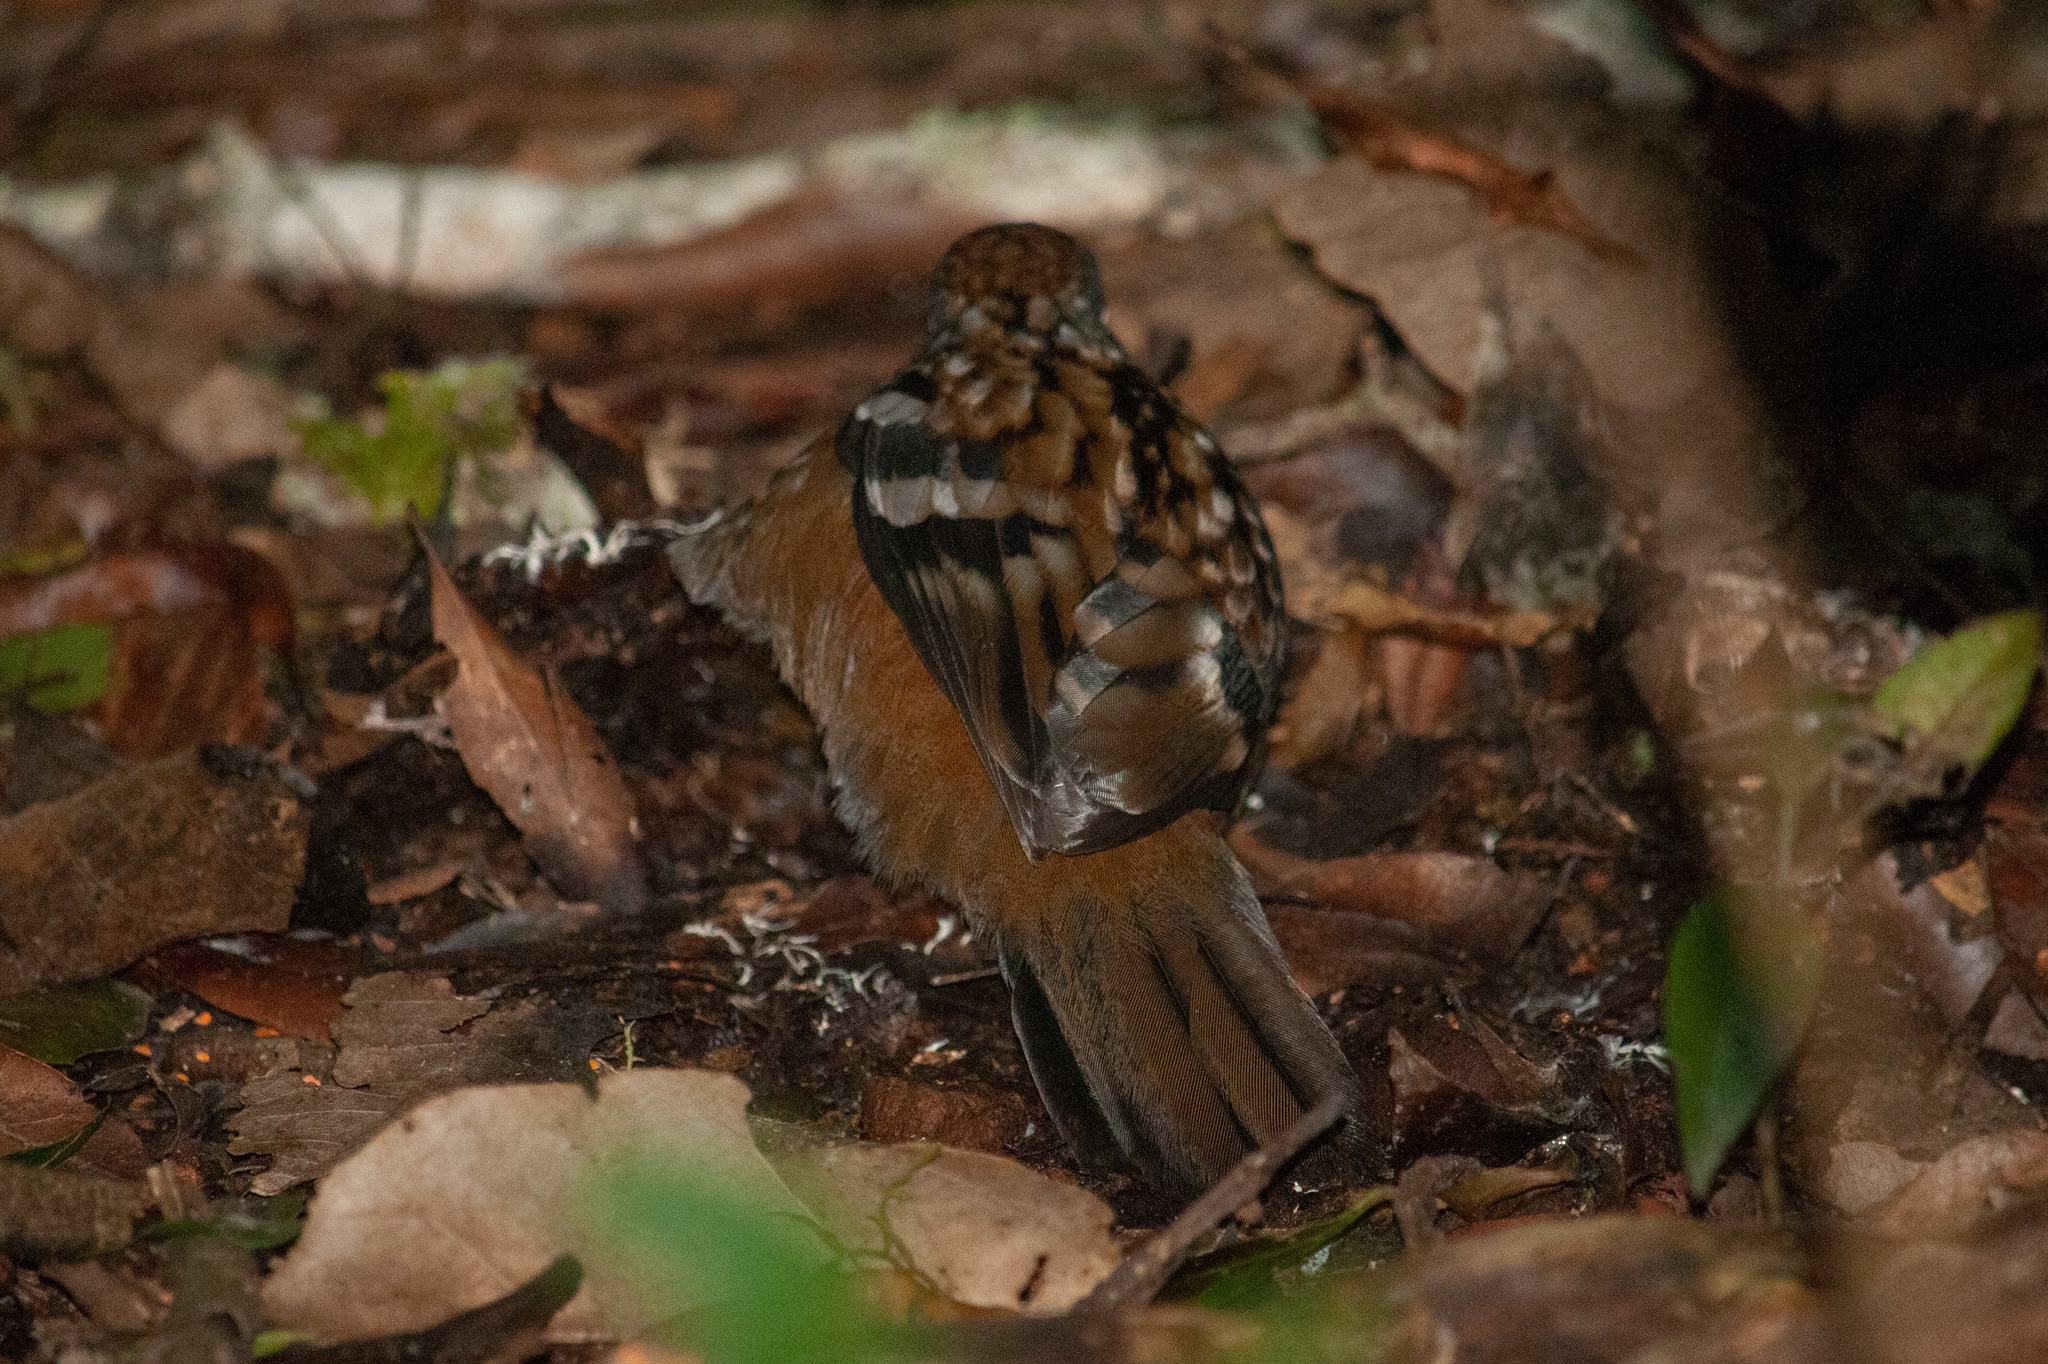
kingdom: Animalia
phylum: Chordata
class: Aves
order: Passeriformes
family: Orthonychidae
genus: Orthonyx
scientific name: Orthonyx temminckii
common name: Australian logrunner
